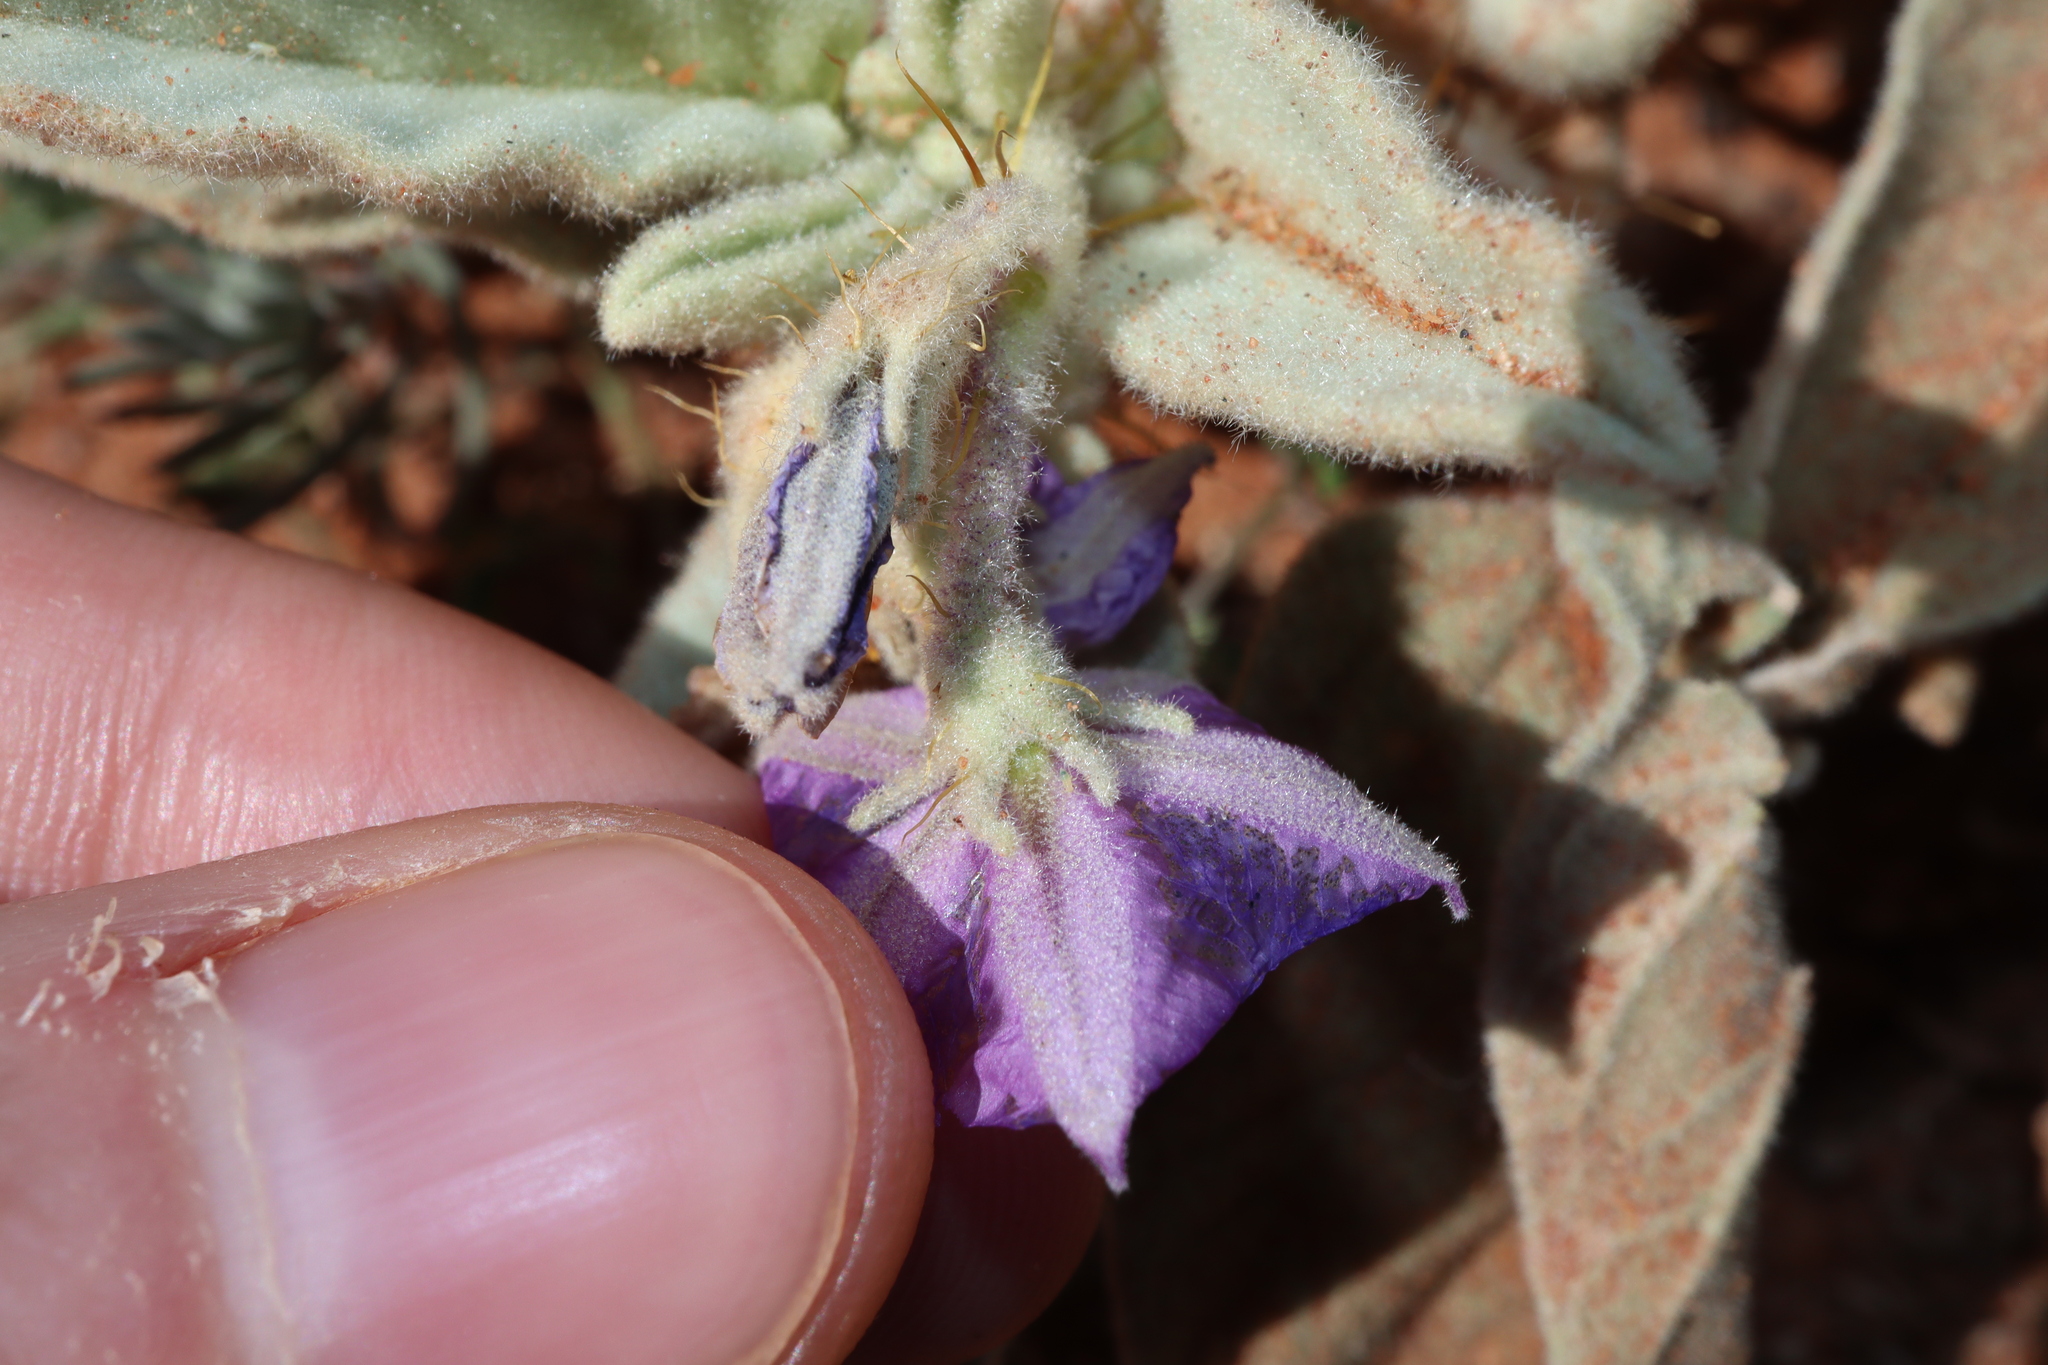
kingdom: Plantae
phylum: Tracheophyta
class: Magnoliopsida
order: Solanales
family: Solanaceae
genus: Solanum
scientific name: Solanum ellipticum
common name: Potato-bush
